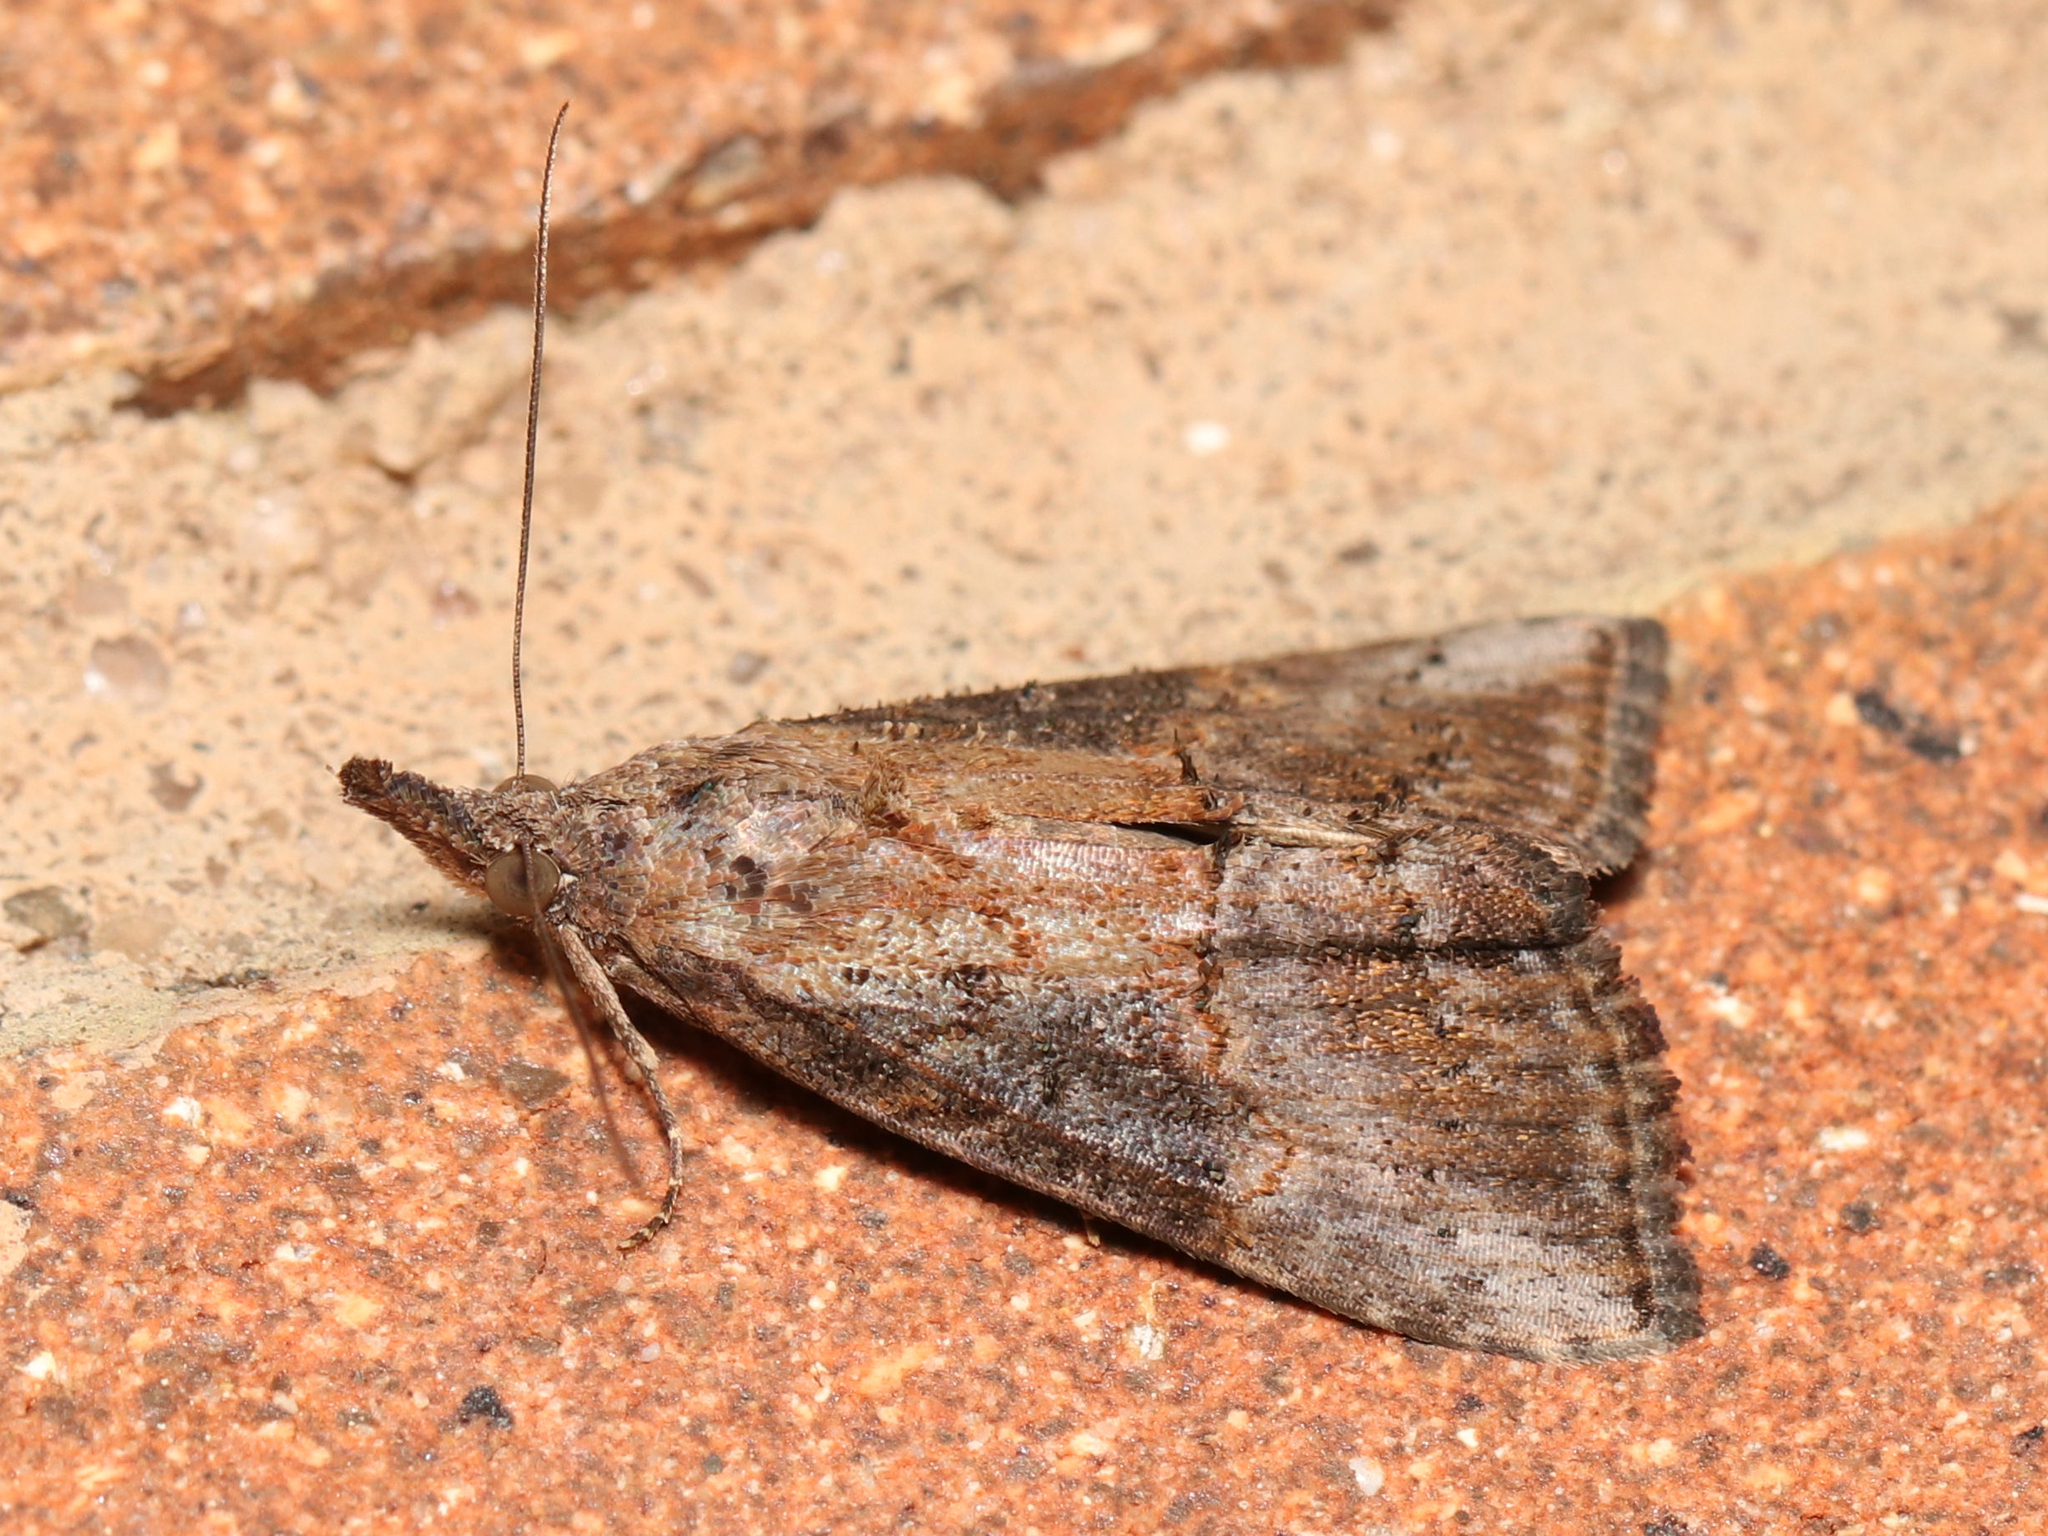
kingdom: Animalia
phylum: Arthropoda
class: Insecta
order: Lepidoptera
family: Erebidae
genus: Hypena
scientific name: Hypena scabra
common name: Green cloverworm
